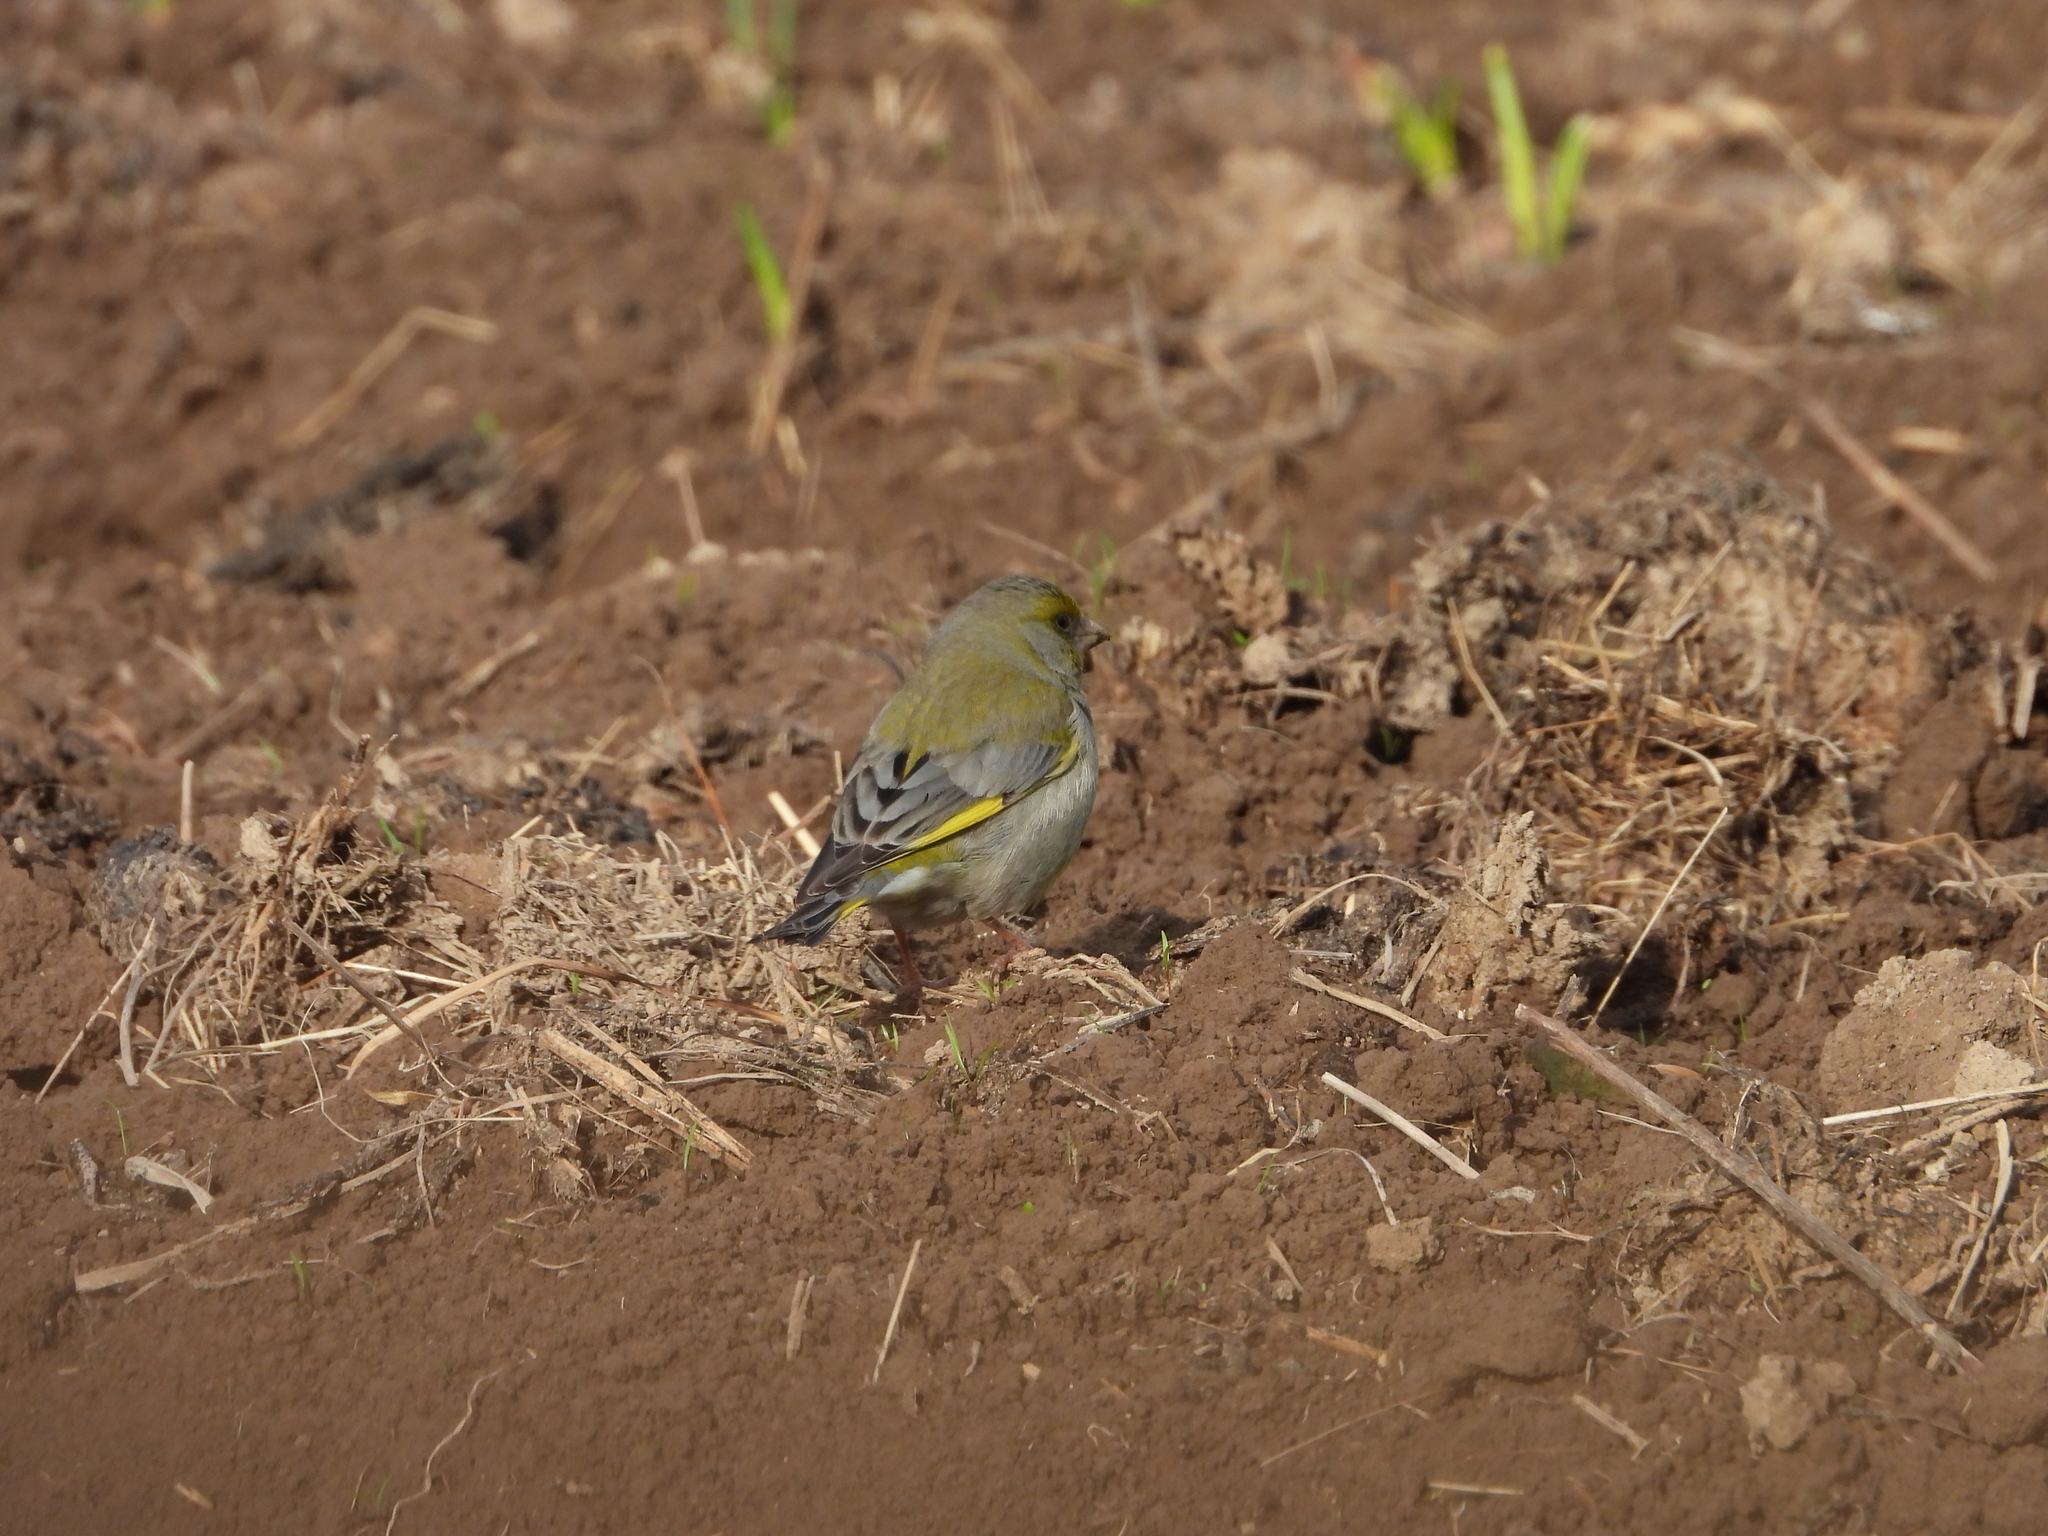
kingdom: Plantae
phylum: Tracheophyta
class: Liliopsida
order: Poales
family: Poaceae
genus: Chloris
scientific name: Chloris chloris
